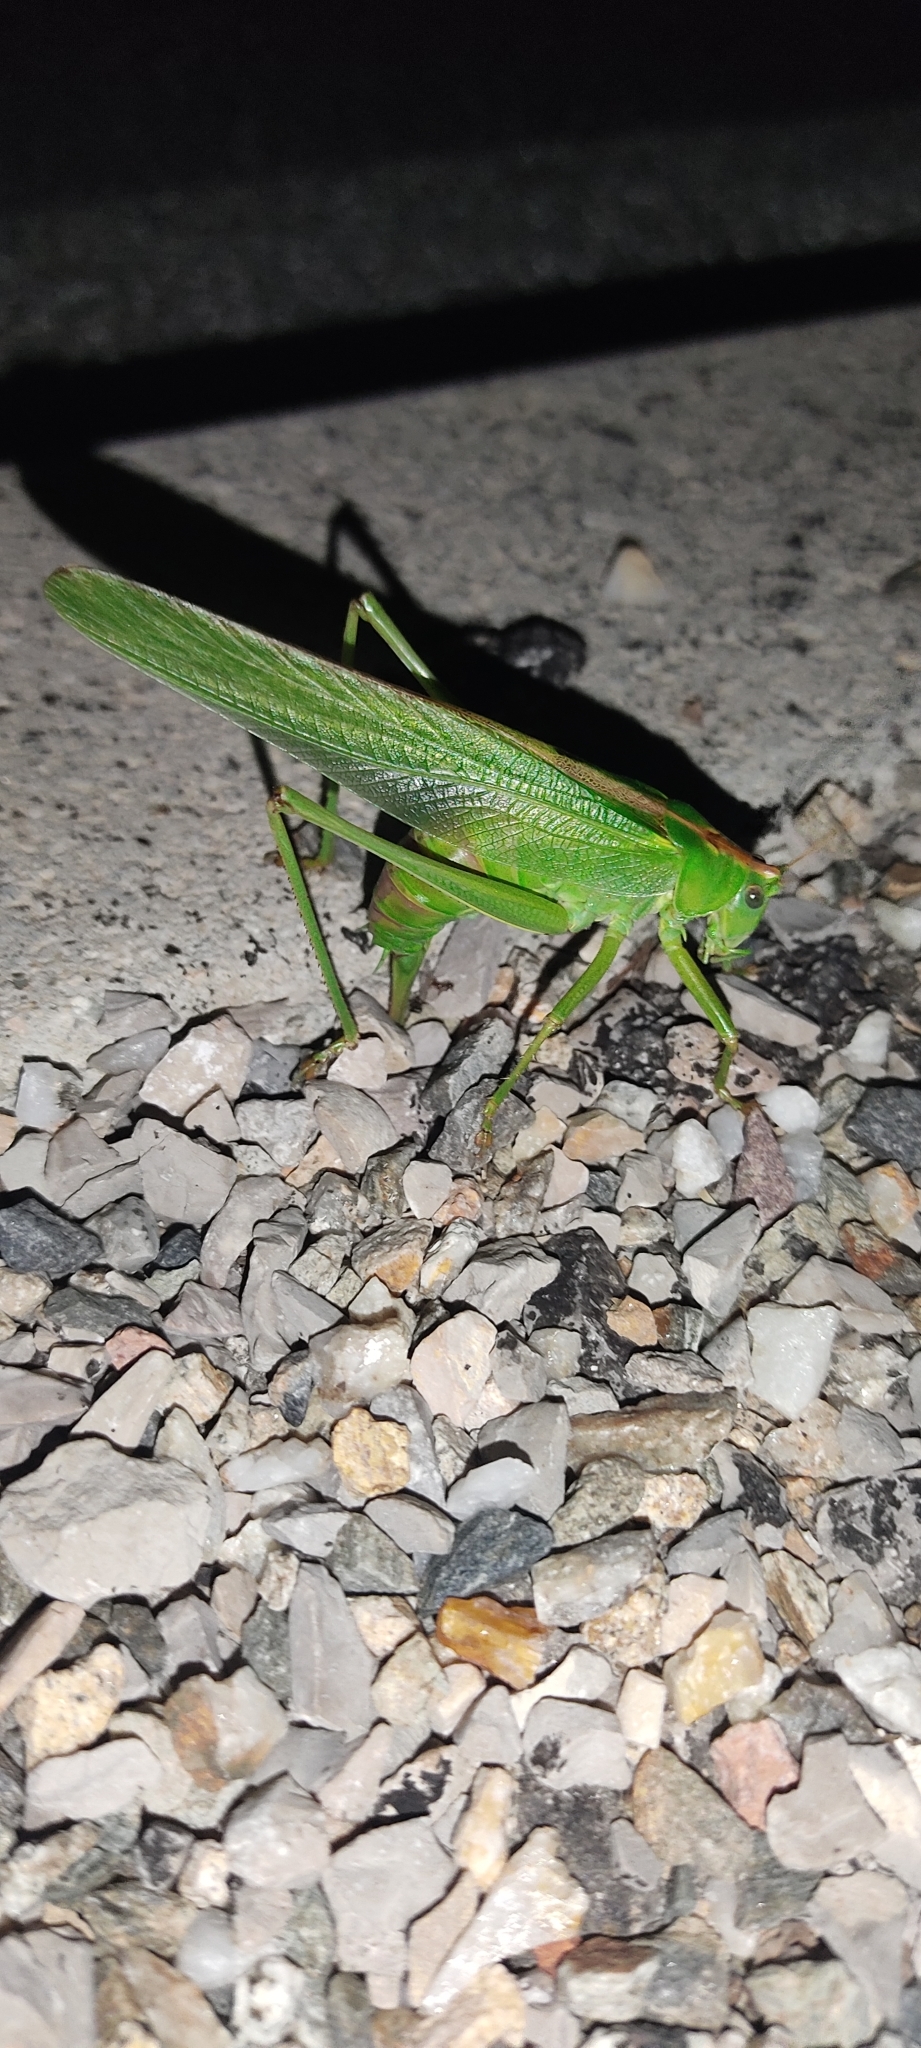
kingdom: Animalia
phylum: Arthropoda
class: Insecta
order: Orthoptera
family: Tettigoniidae
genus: Tettigonia
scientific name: Tettigonia viridissima
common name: Great green bush-cricket
